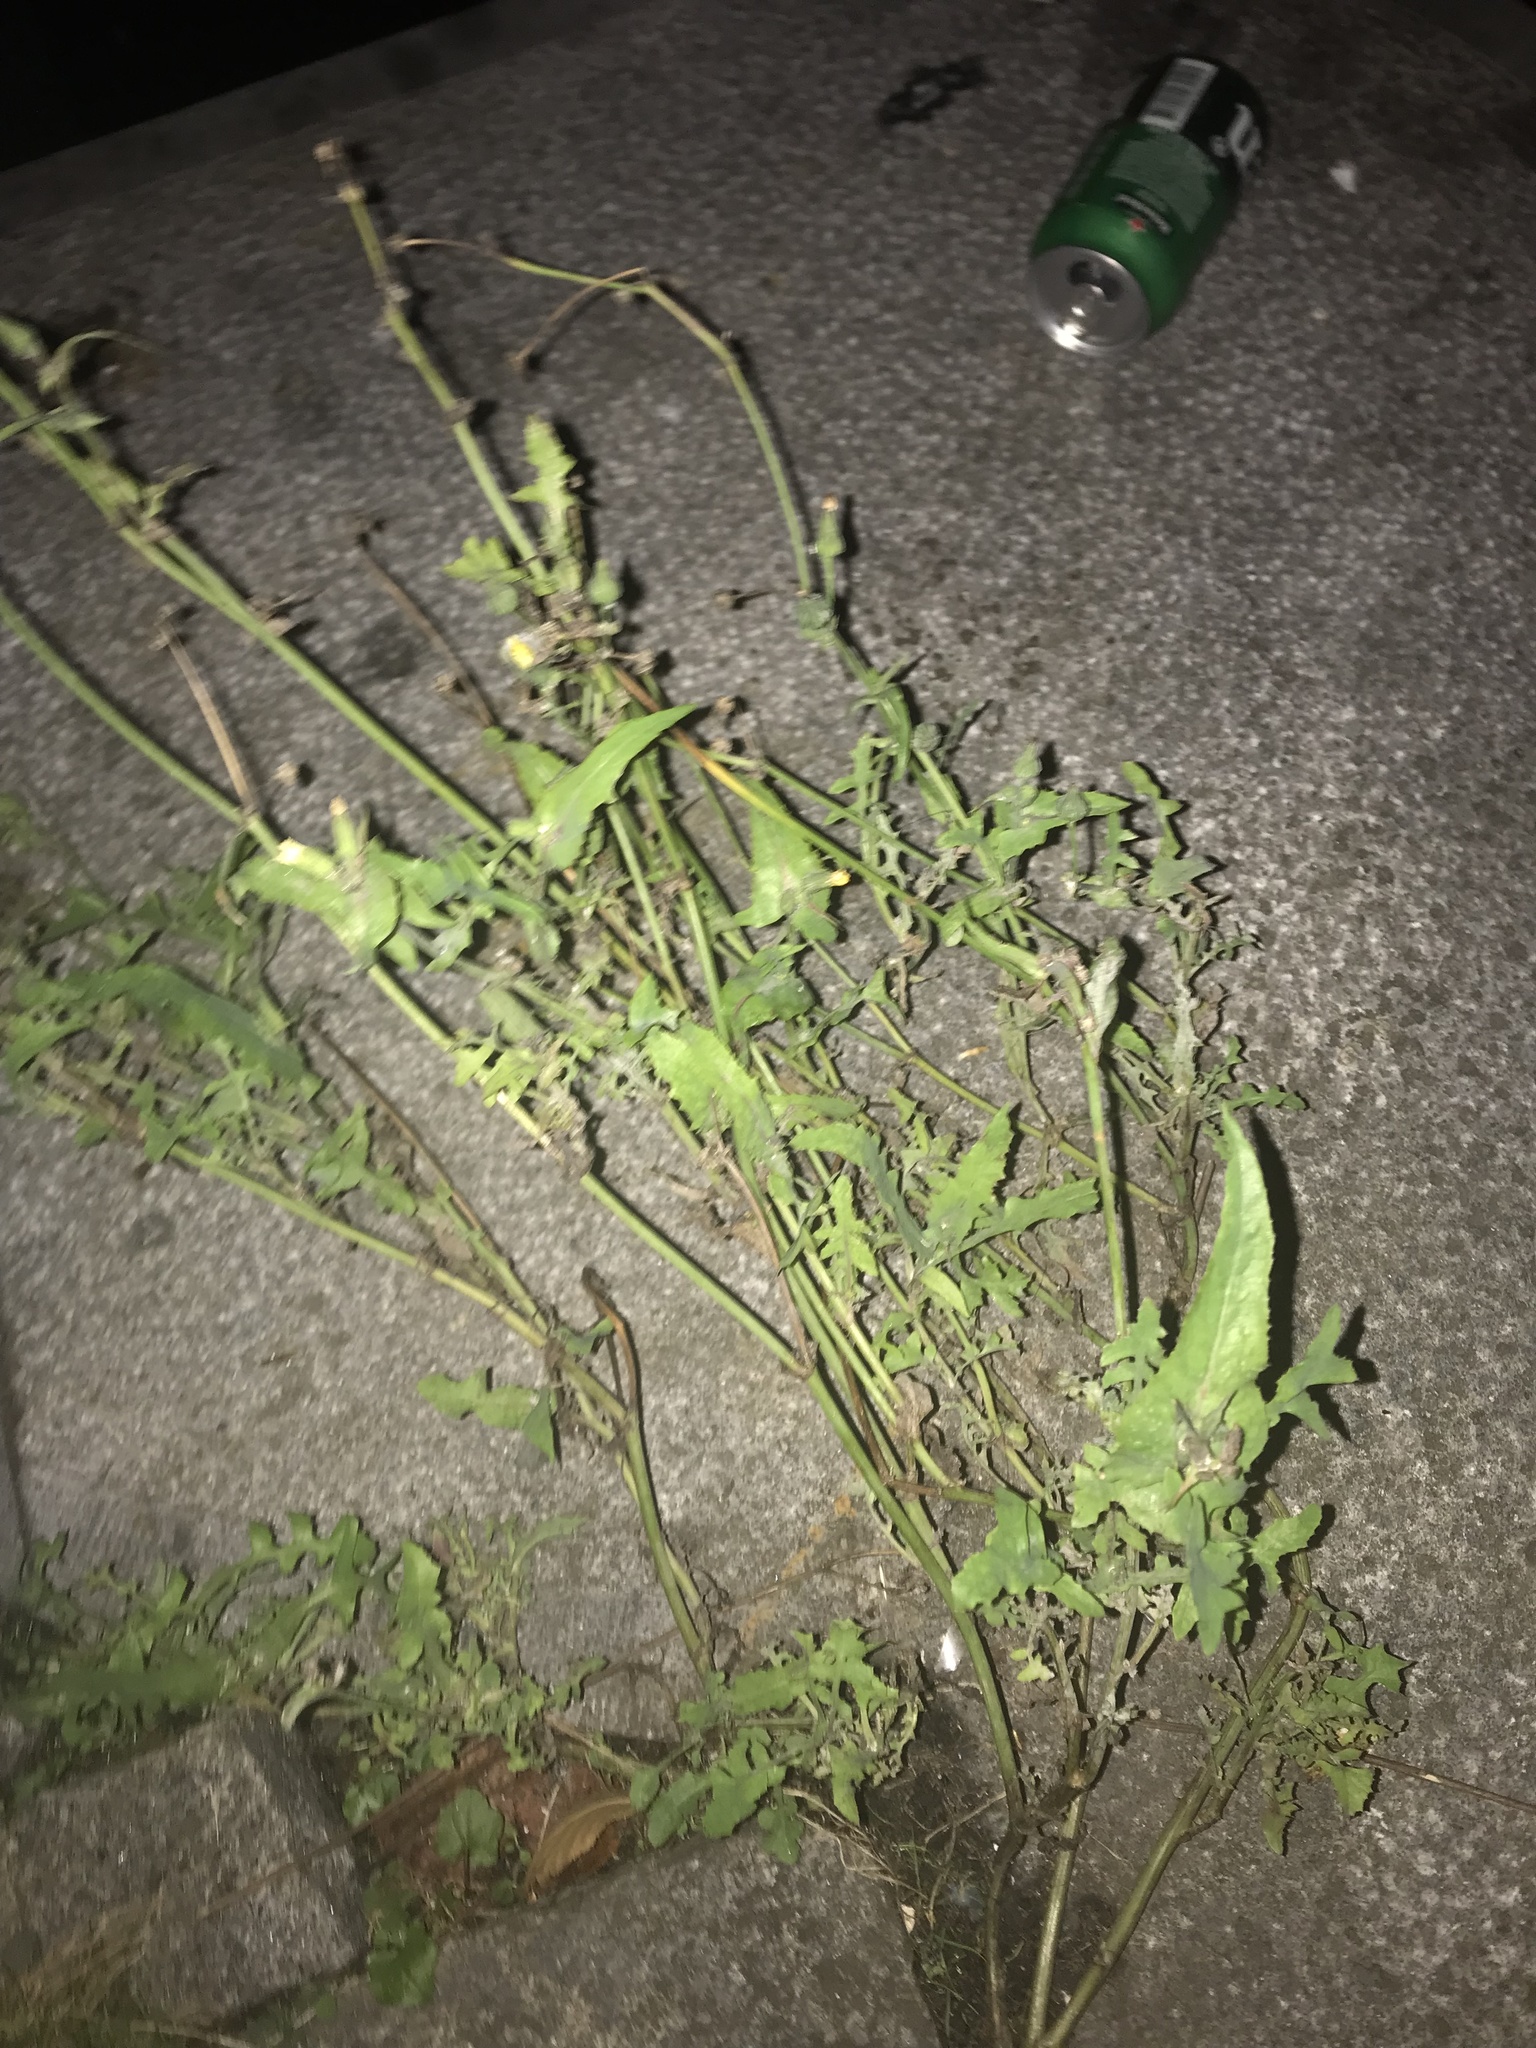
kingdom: Plantae
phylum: Tracheophyta
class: Magnoliopsida
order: Asterales
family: Asteraceae
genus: Sonchus
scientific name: Sonchus oleraceus
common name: Common sowthistle
